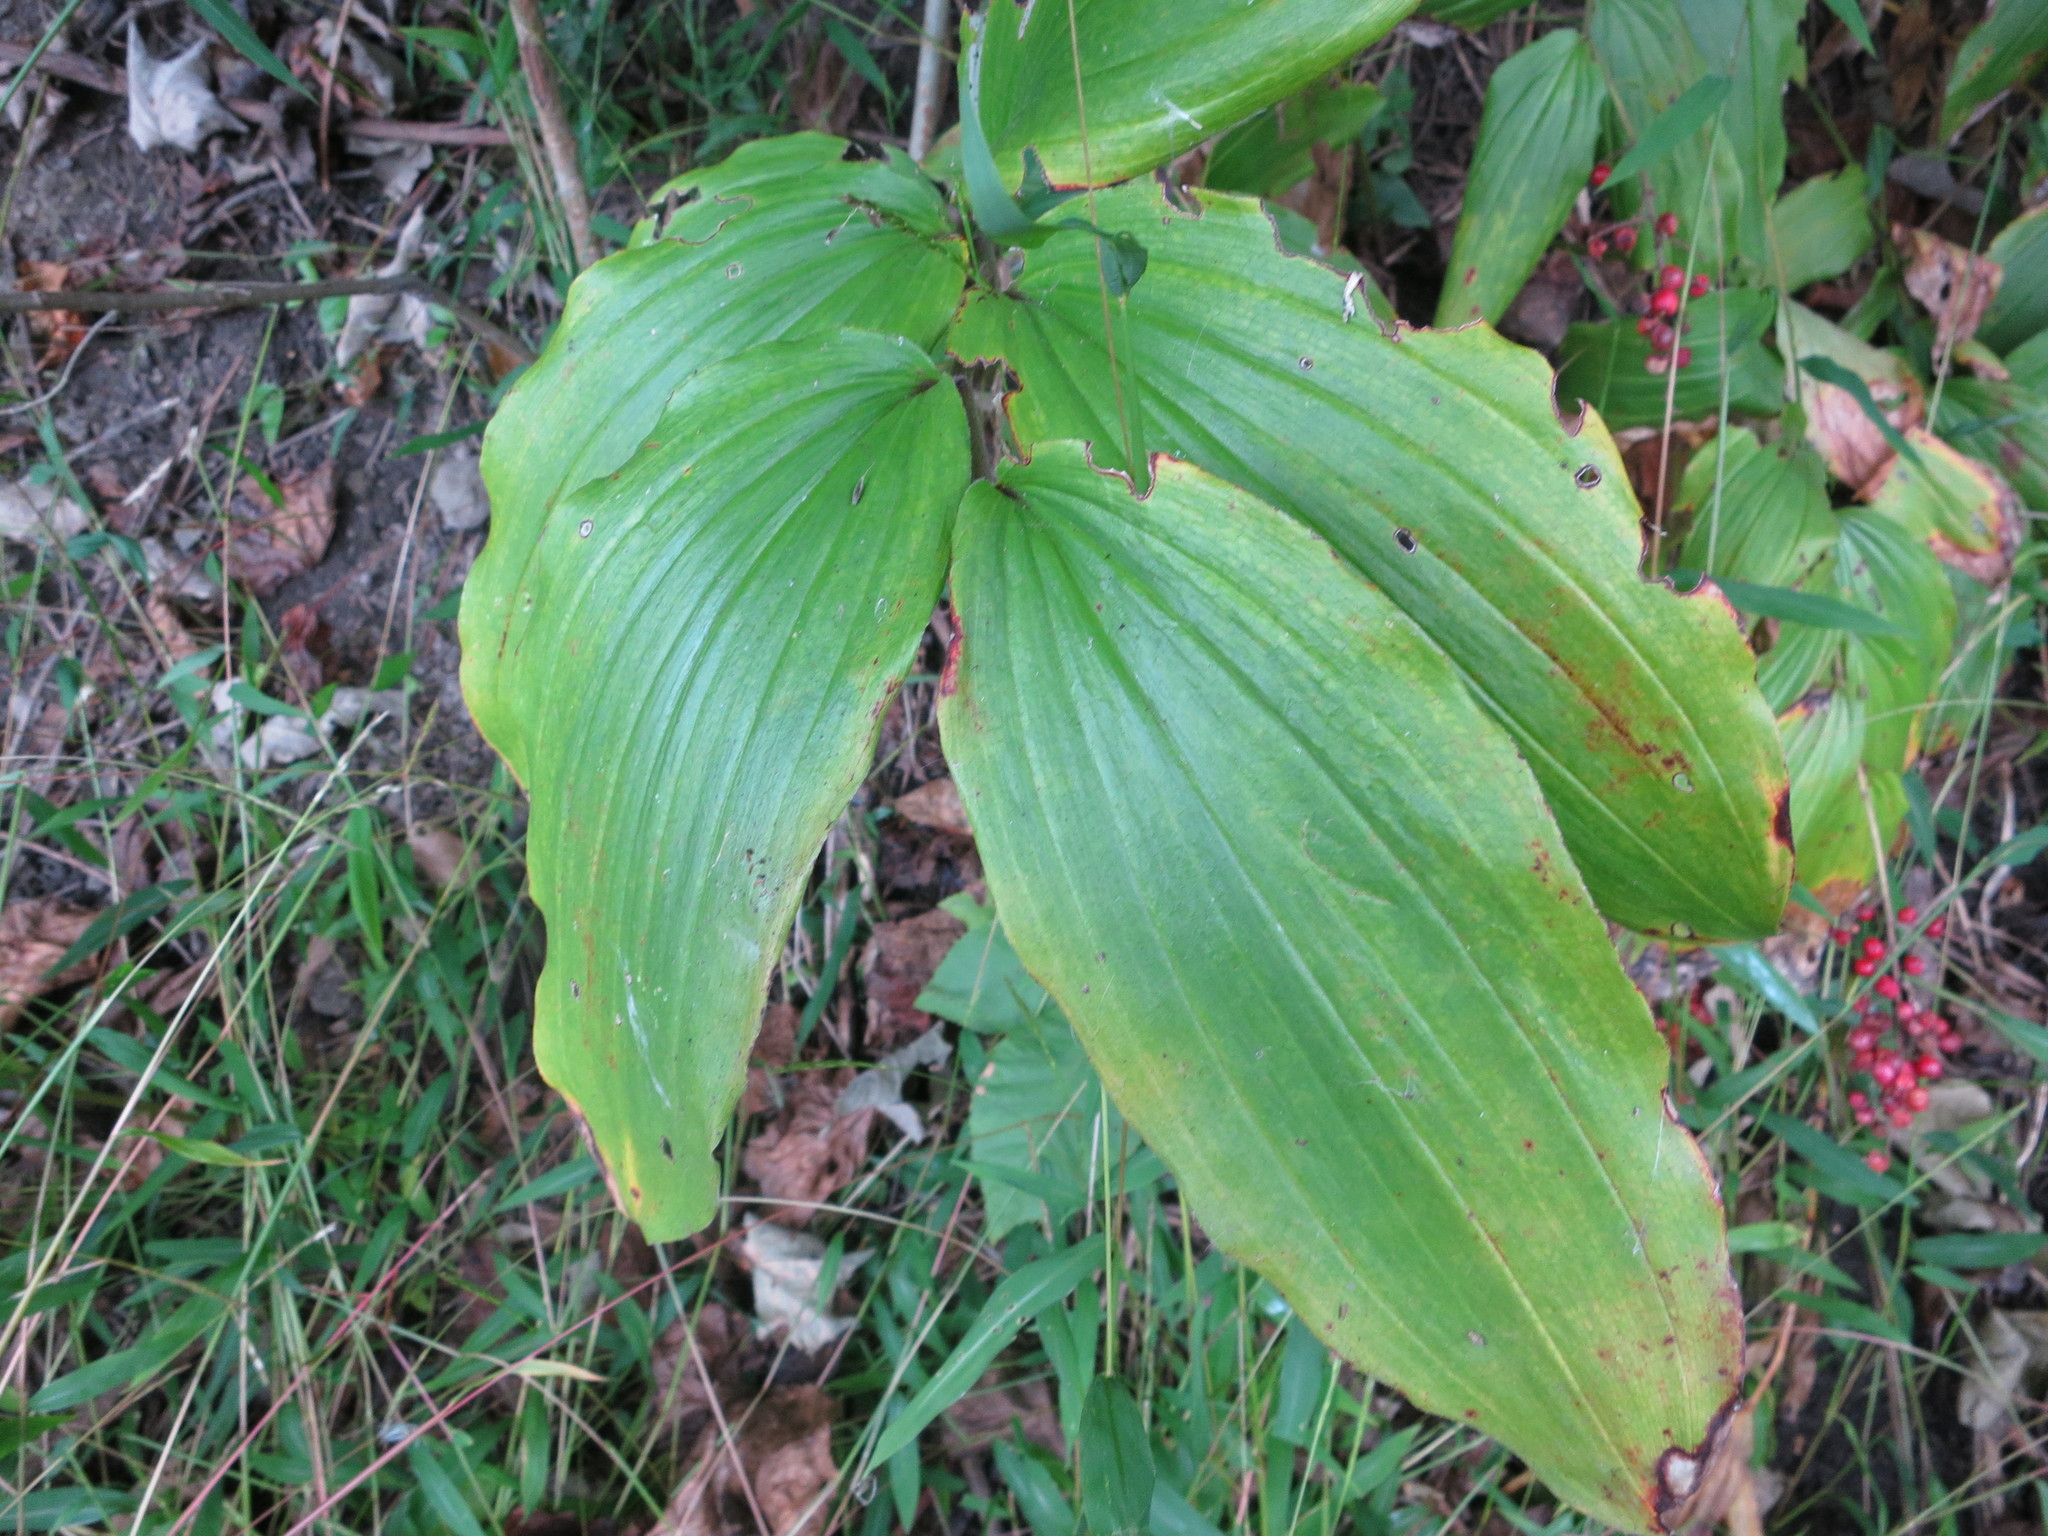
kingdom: Plantae
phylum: Tracheophyta
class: Liliopsida
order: Asparagales
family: Asparagaceae
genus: Maianthemum
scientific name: Maianthemum racemosum
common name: False spikenard
